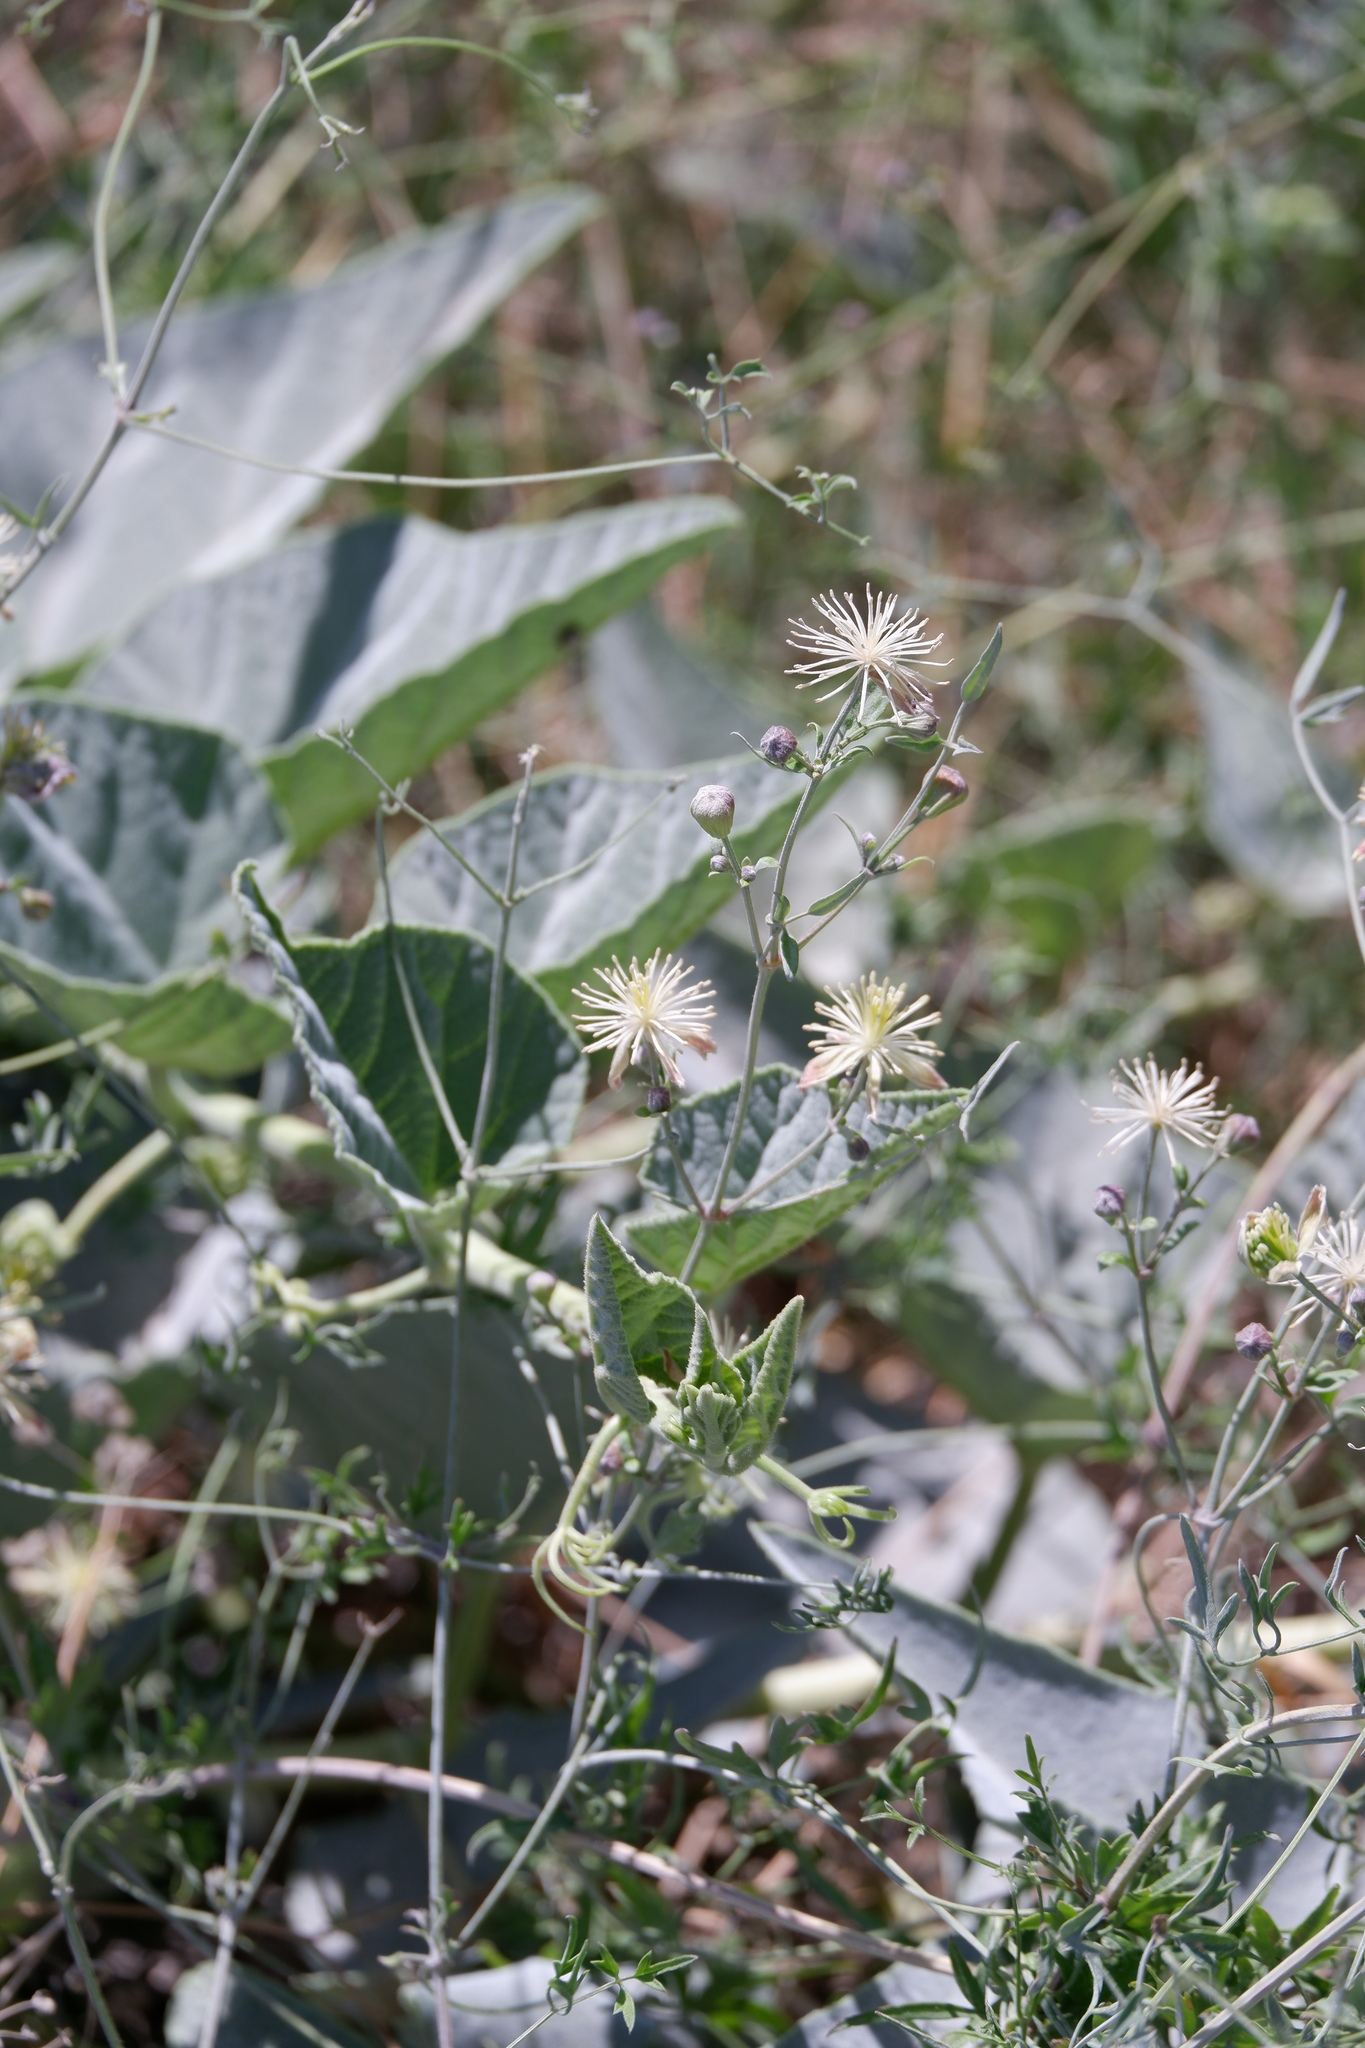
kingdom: Plantae
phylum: Tracheophyta
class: Magnoliopsida
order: Ranunculales
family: Ranunculaceae
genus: Clematis
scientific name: Clematis drummondii
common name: Texas virgin's bower
